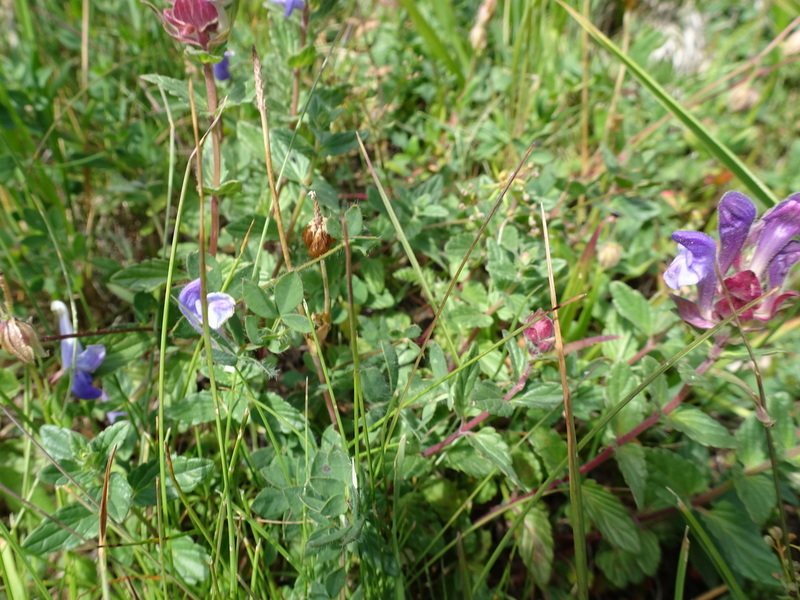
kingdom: Plantae
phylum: Tracheophyta
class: Magnoliopsida
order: Lamiales
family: Lamiaceae
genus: Scutellaria
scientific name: Scutellaria alpina
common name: Alpine scullcap
